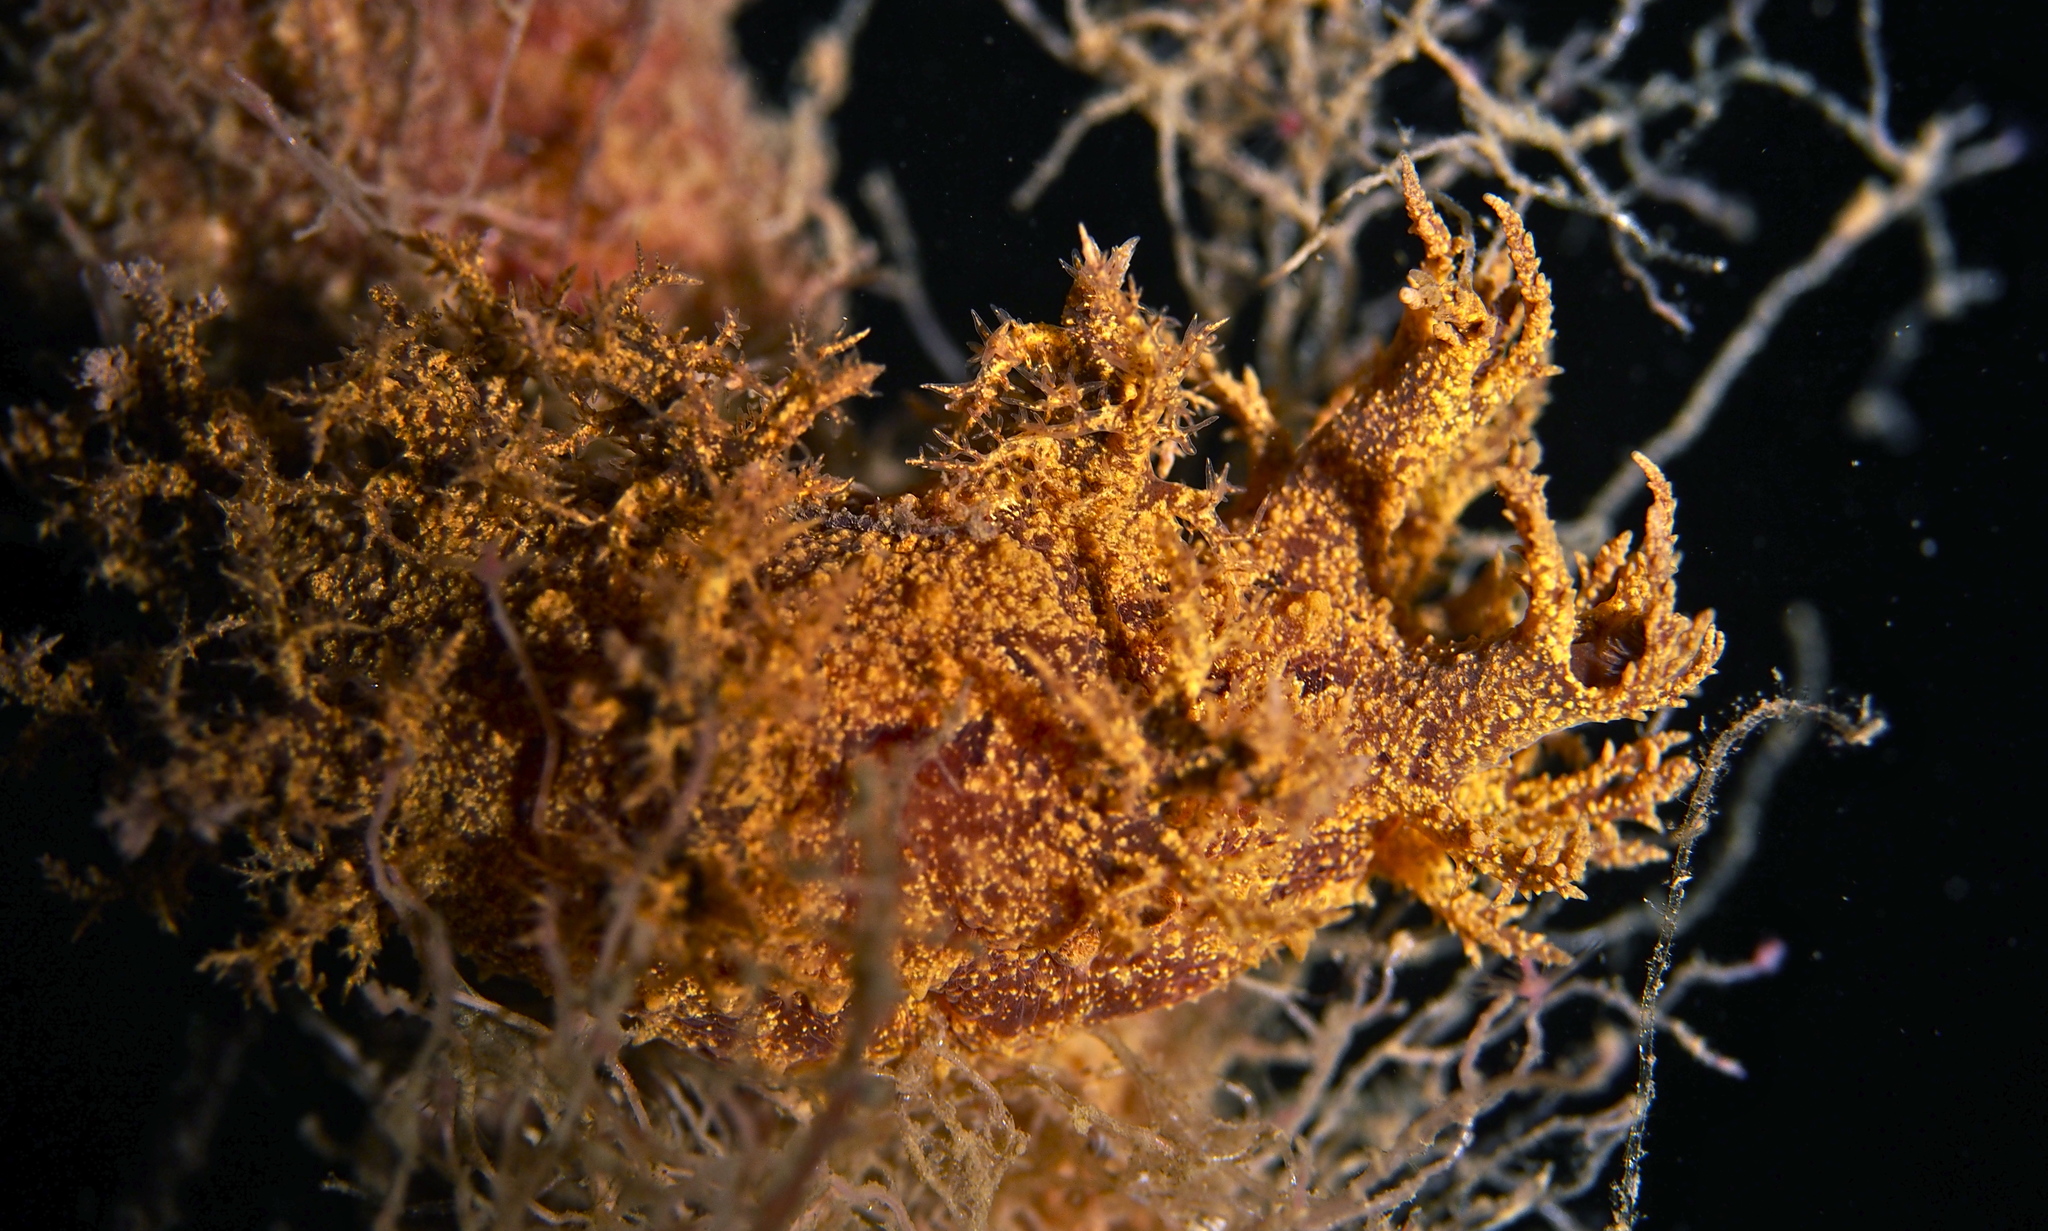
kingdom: Animalia
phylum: Mollusca
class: Gastropoda
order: Nudibranchia
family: Dendronotidae
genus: Dendronotus
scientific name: Dendronotus europaeus
